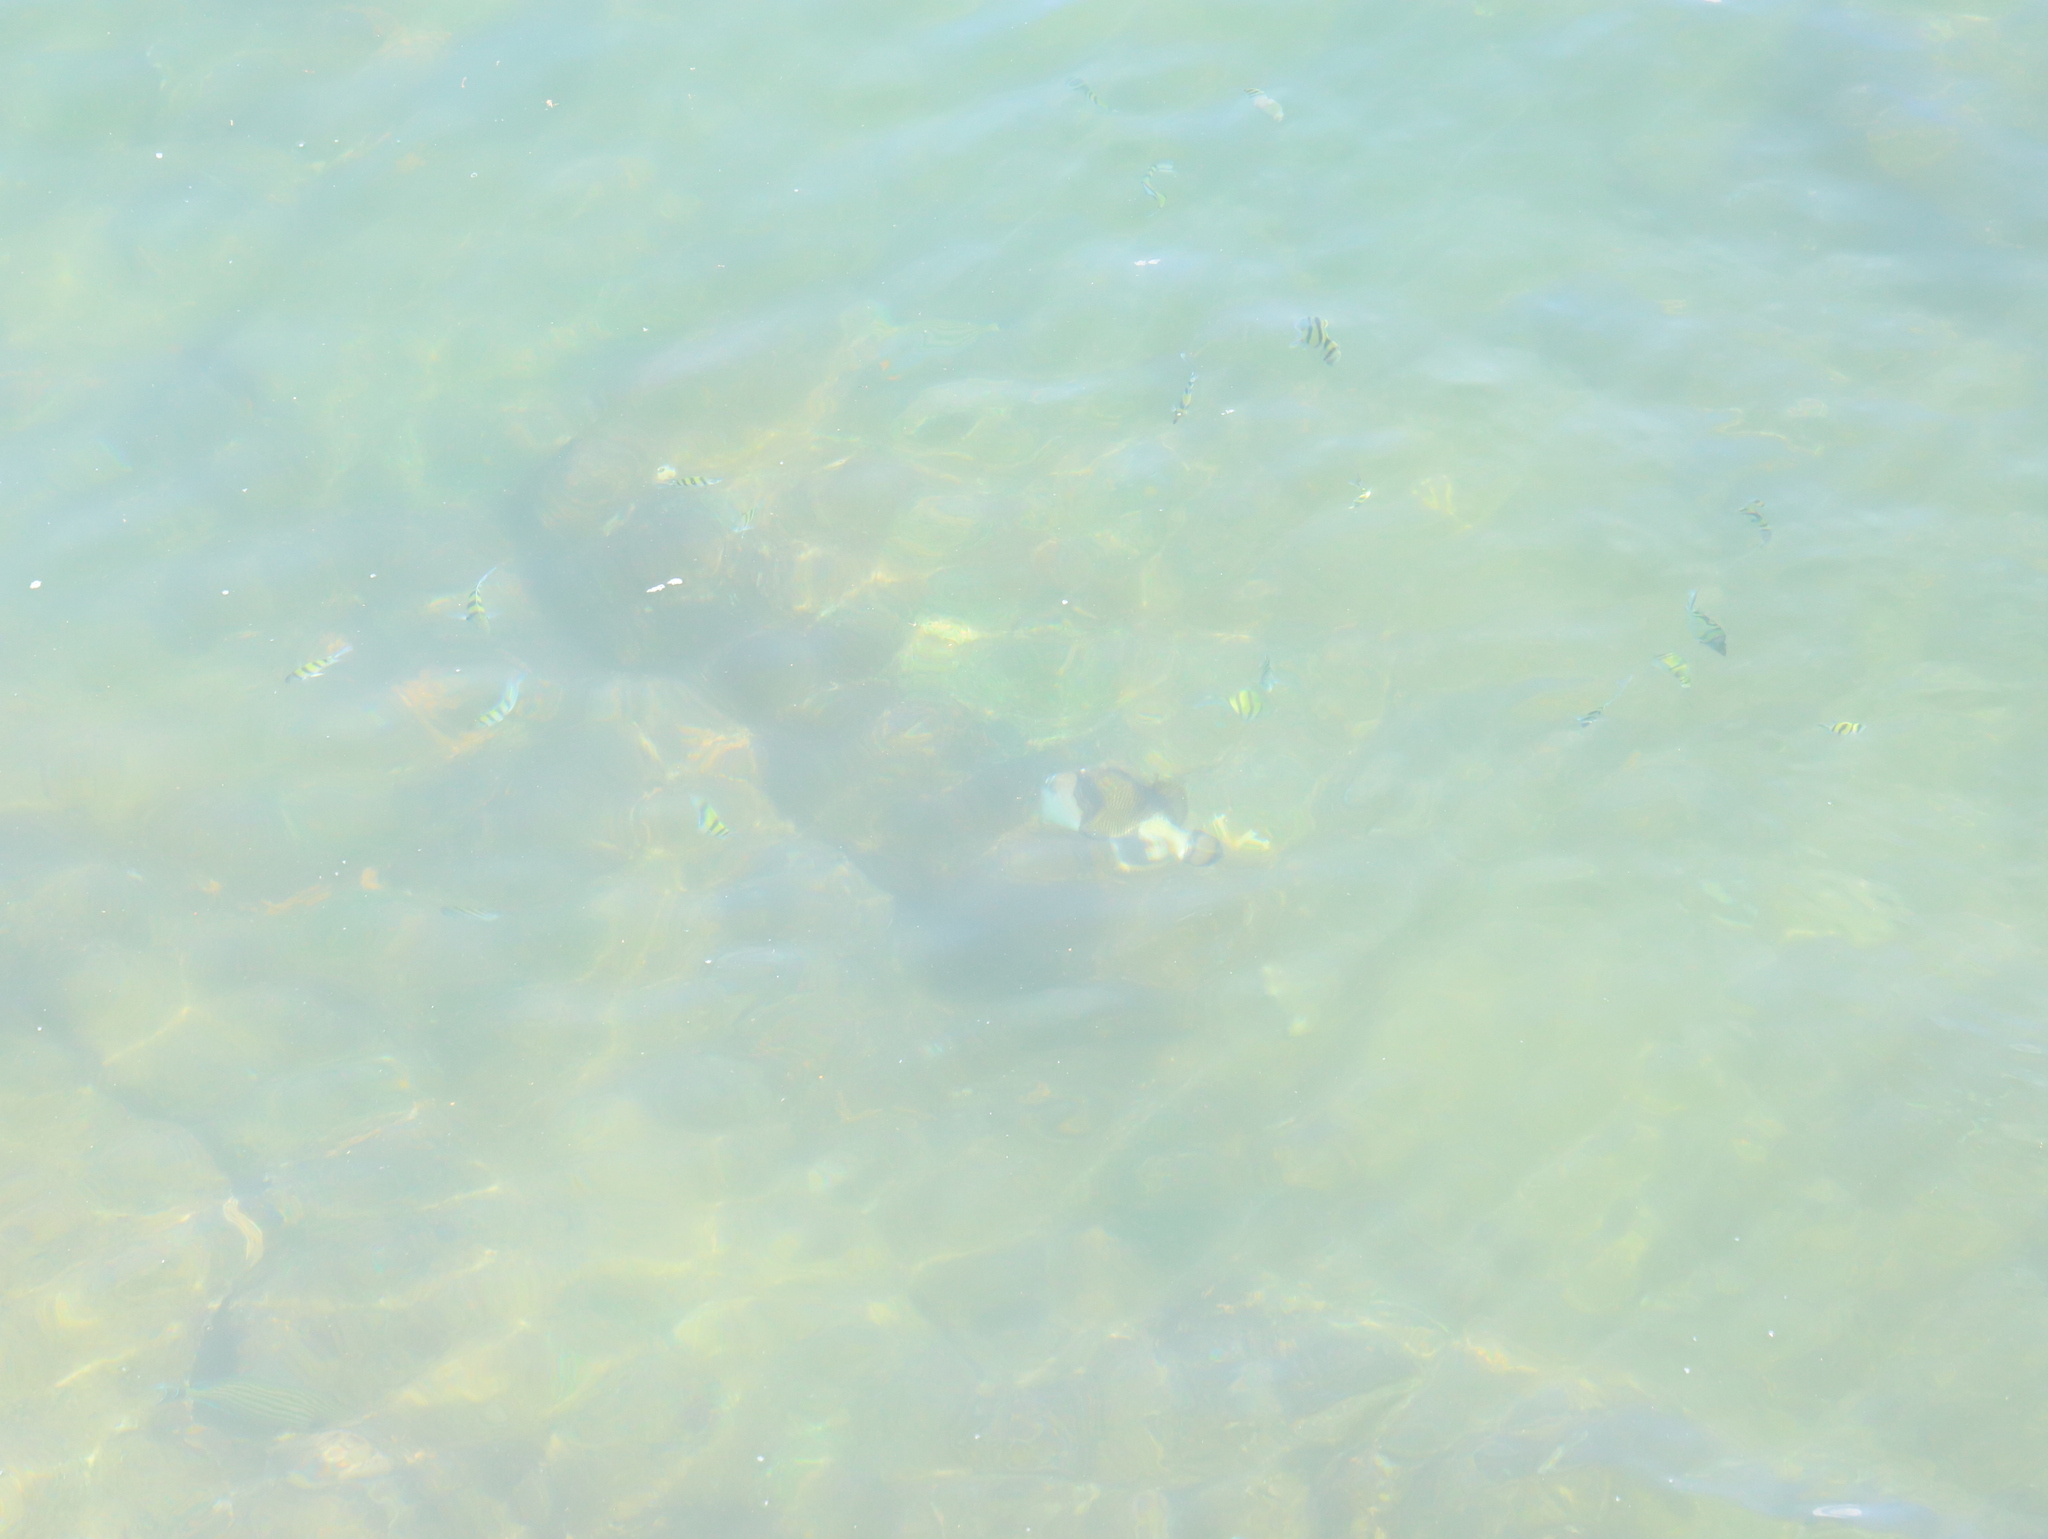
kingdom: Animalia
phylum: Chordata
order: Tetraodontiformes
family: Balistidae
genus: Balistoides
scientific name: Balistoides viridescens
